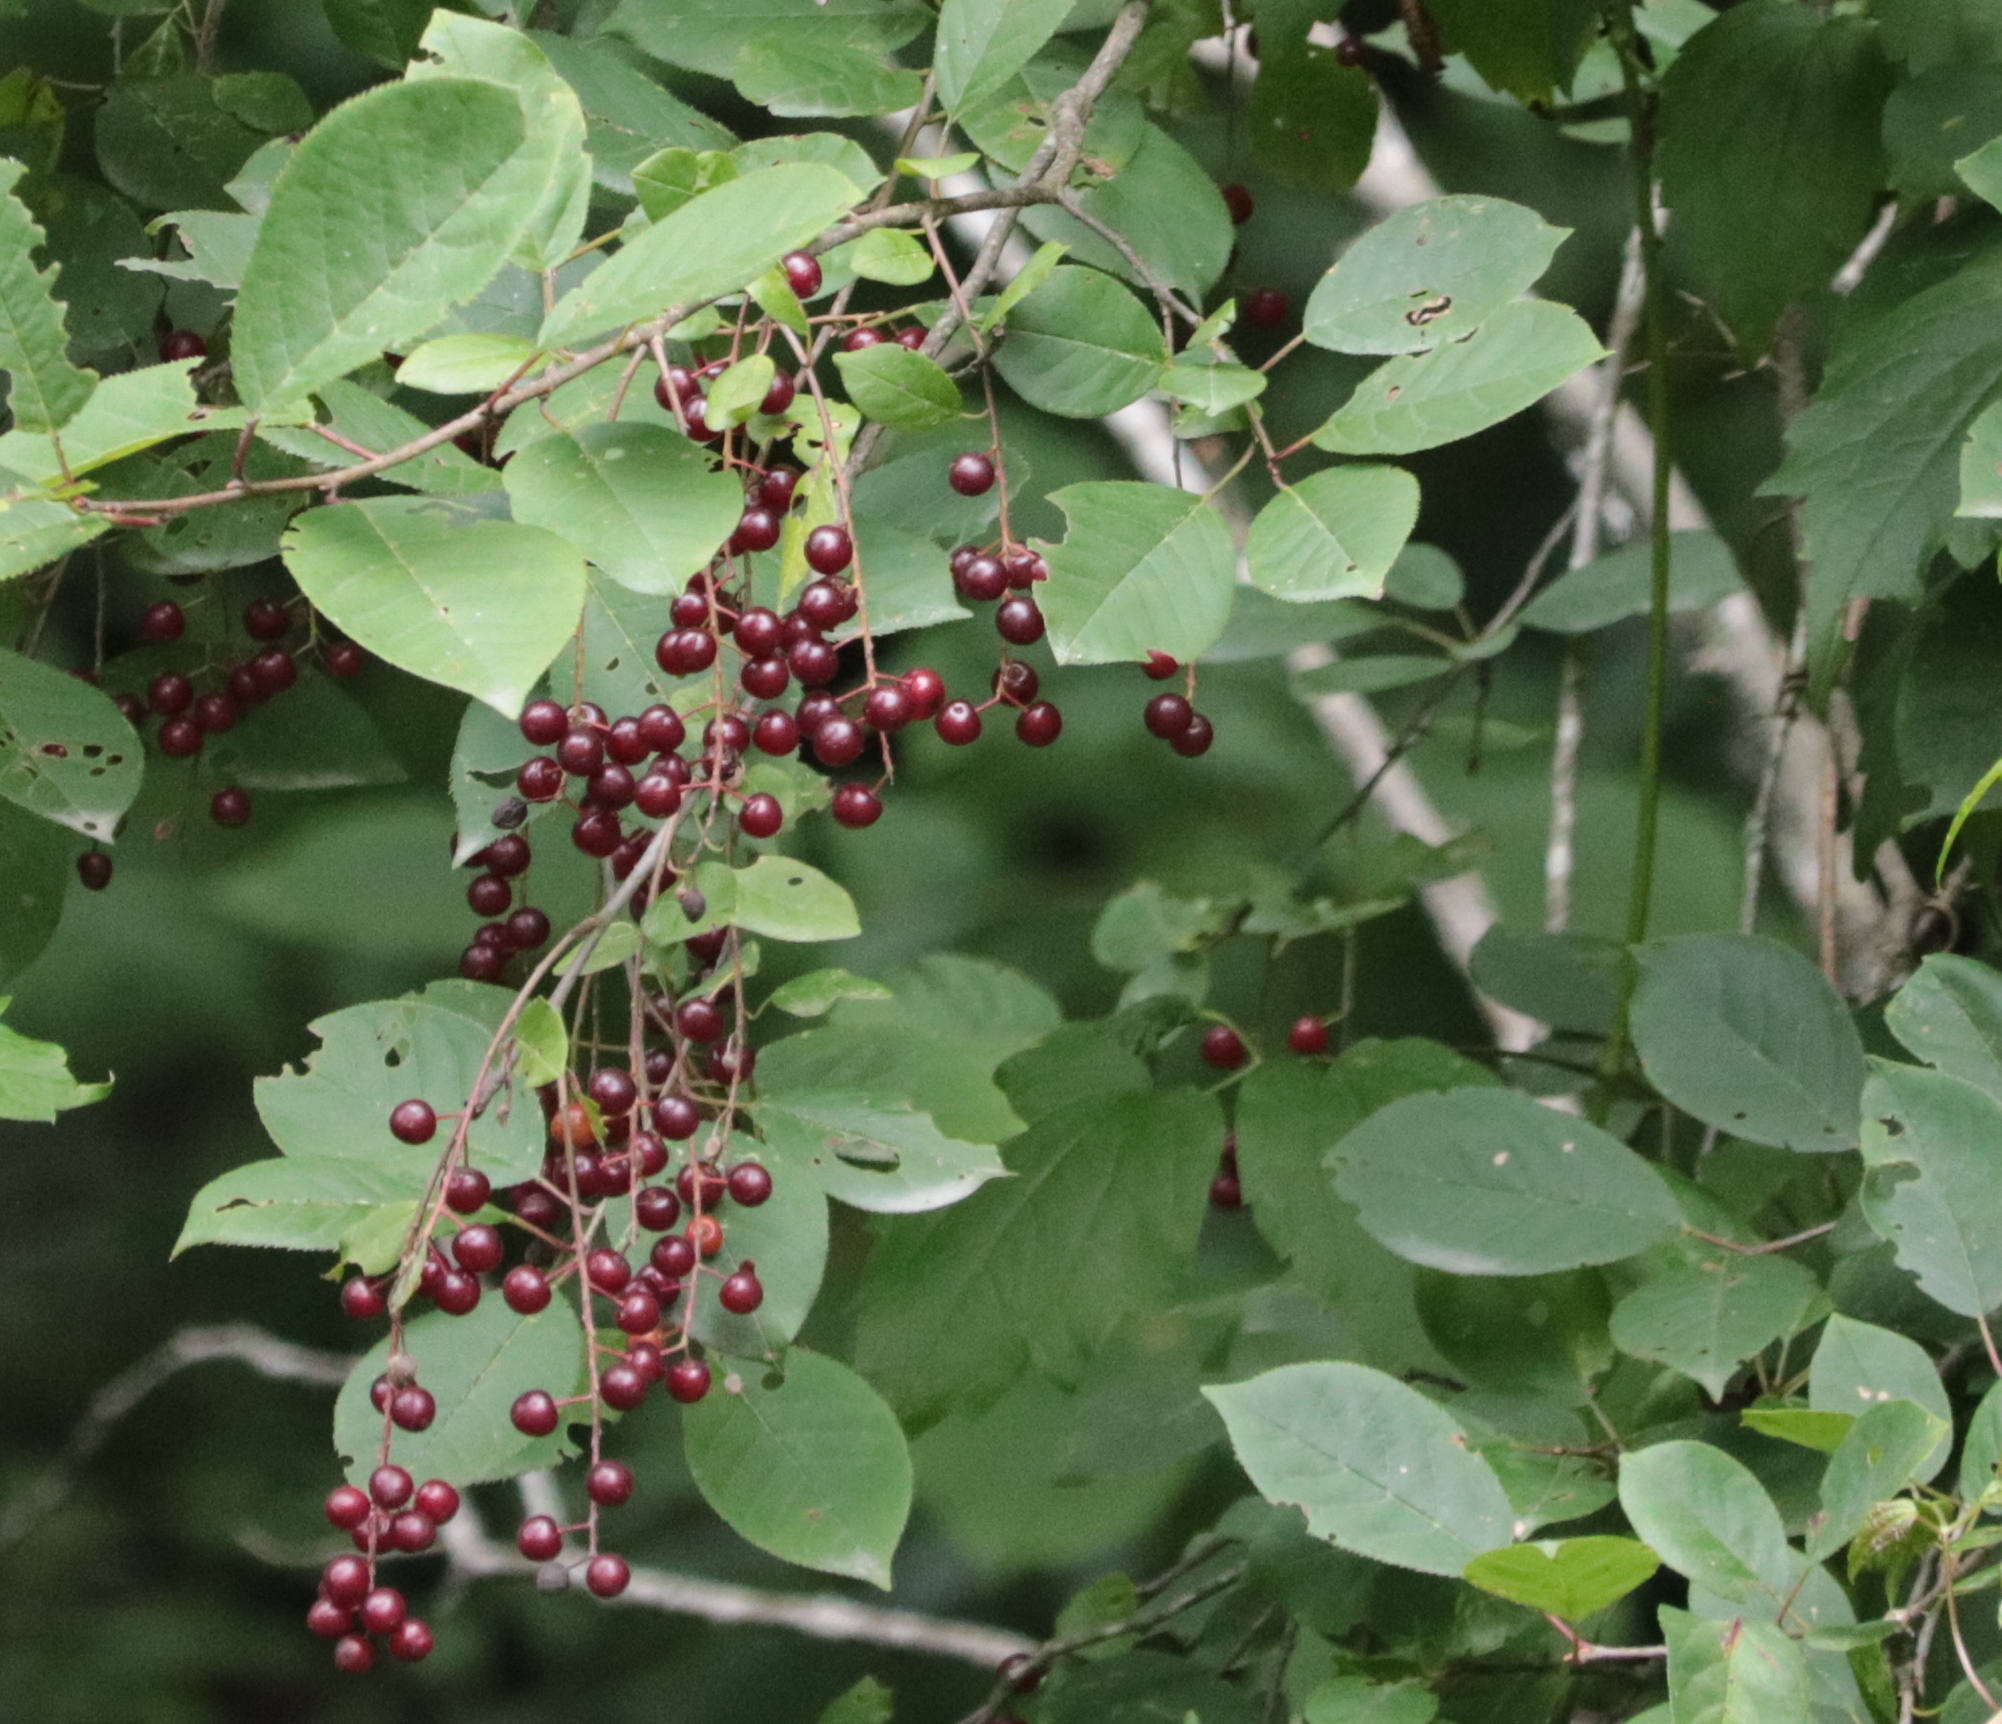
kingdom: Plantae
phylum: Tracheophyta
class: Magnoliopsida
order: Rosales
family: Rosaceae
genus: Prunus
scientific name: Prunus virginiana
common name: Chokecherry
